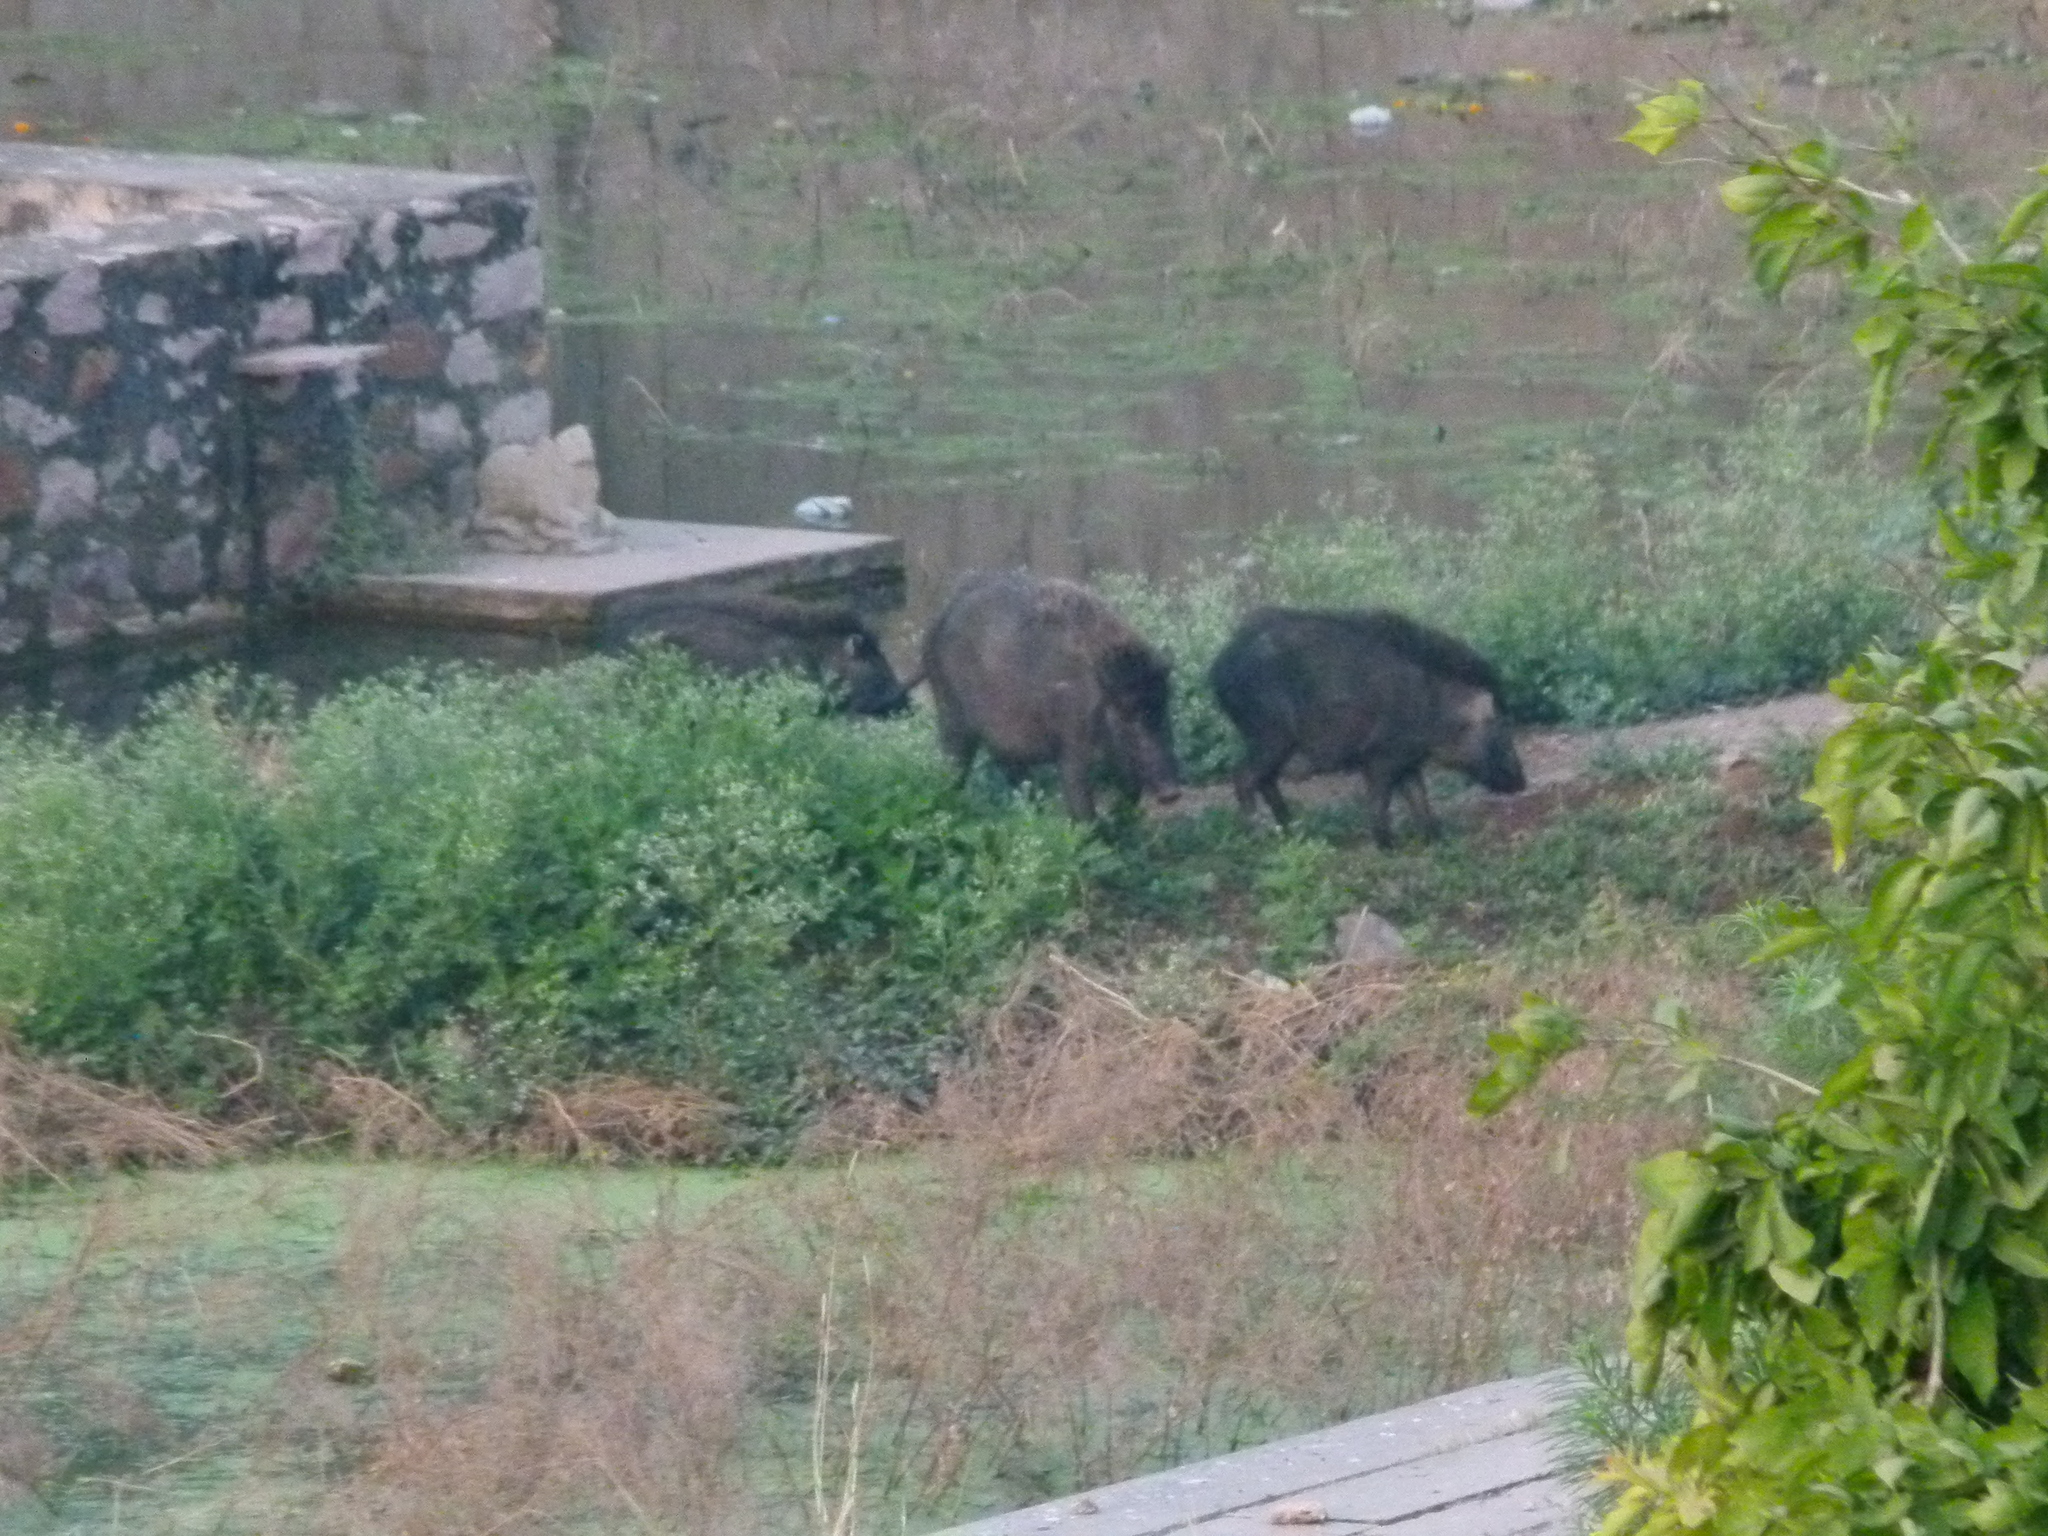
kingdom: Animalia
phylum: Chordata
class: Mammalia
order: Artiodactyla
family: Suidae
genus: Sus
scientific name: Sus scrofa
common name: Wild boar
